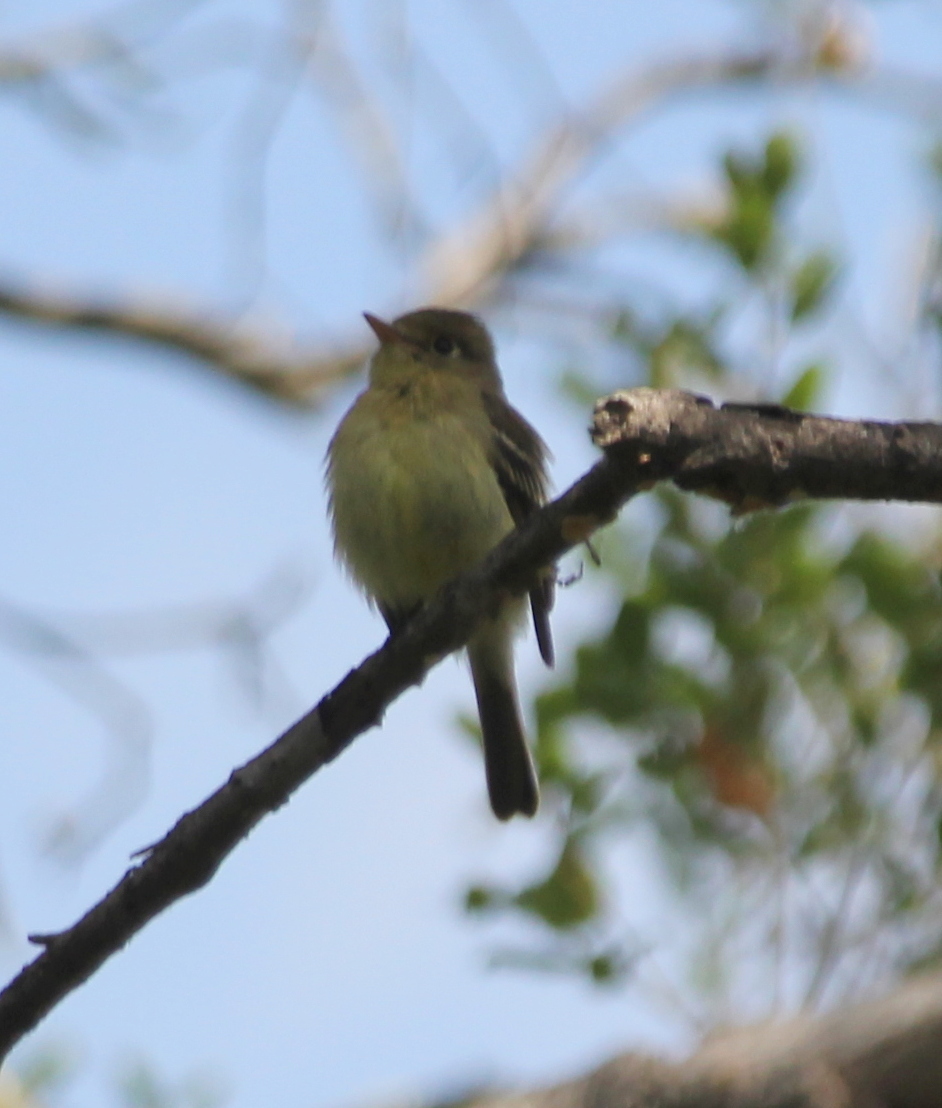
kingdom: Animalia
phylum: Chordata
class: Aves
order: Passeriformes
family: Tyrannidae
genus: Empidonax
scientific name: Empidonax difficilis
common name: Pacific-slope flycatcher
